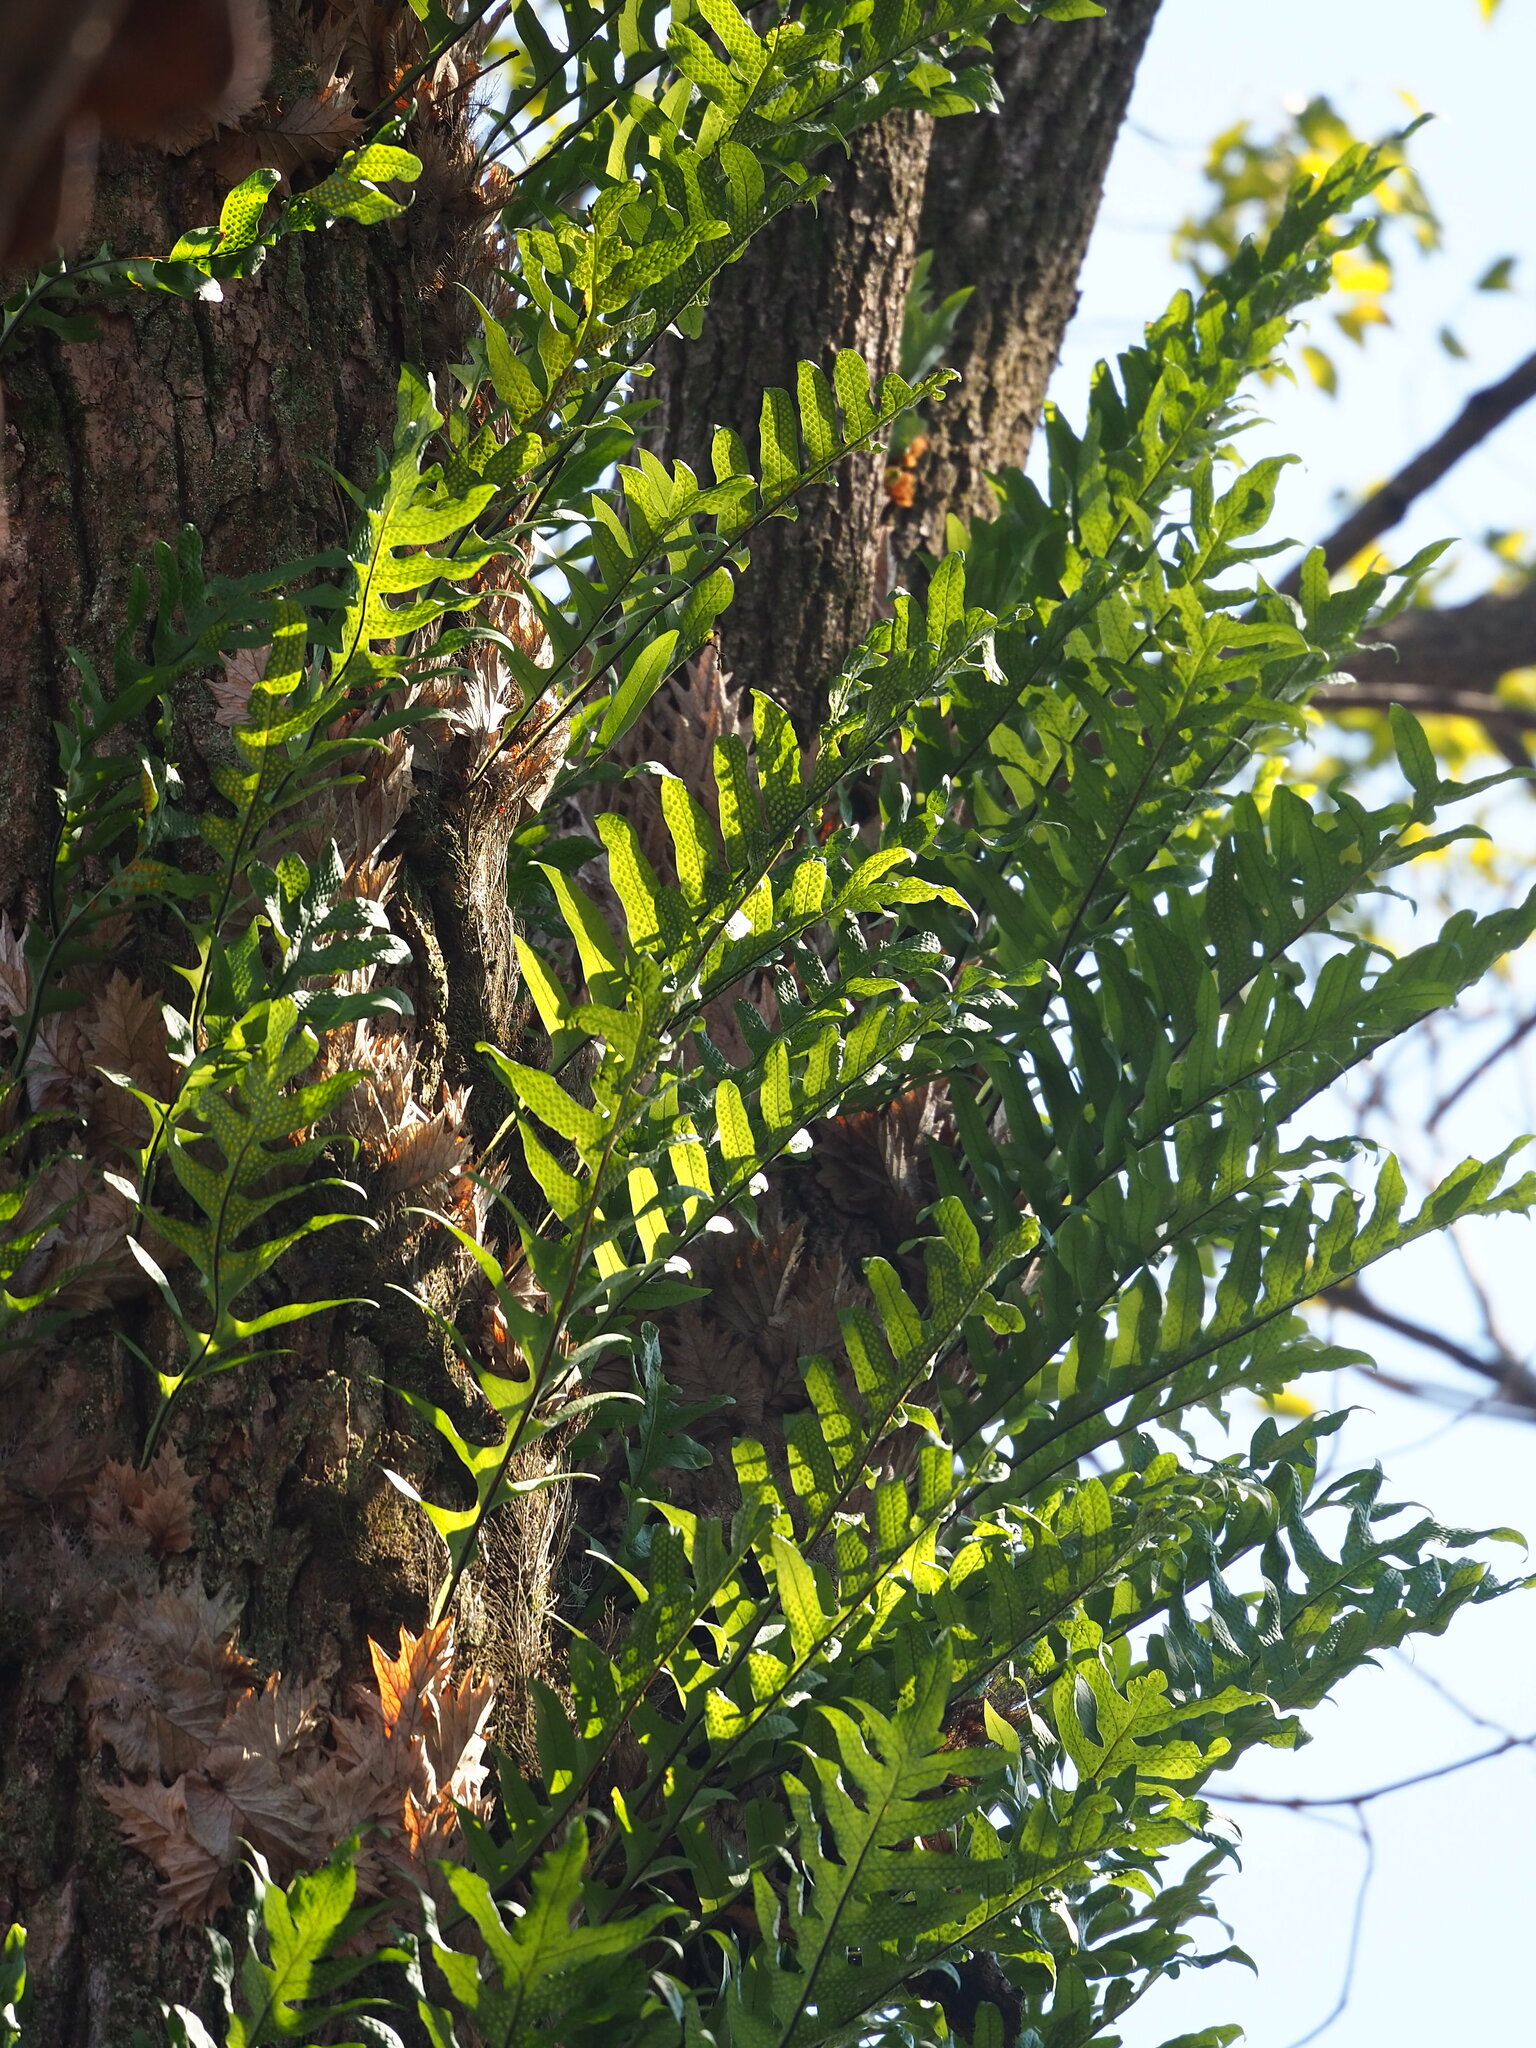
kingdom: Plantae
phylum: Tracheophyta
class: Polypodiopsida
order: Polypodiales
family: Polypodiaceae
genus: Drynaria
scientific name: Drynaria roosii
